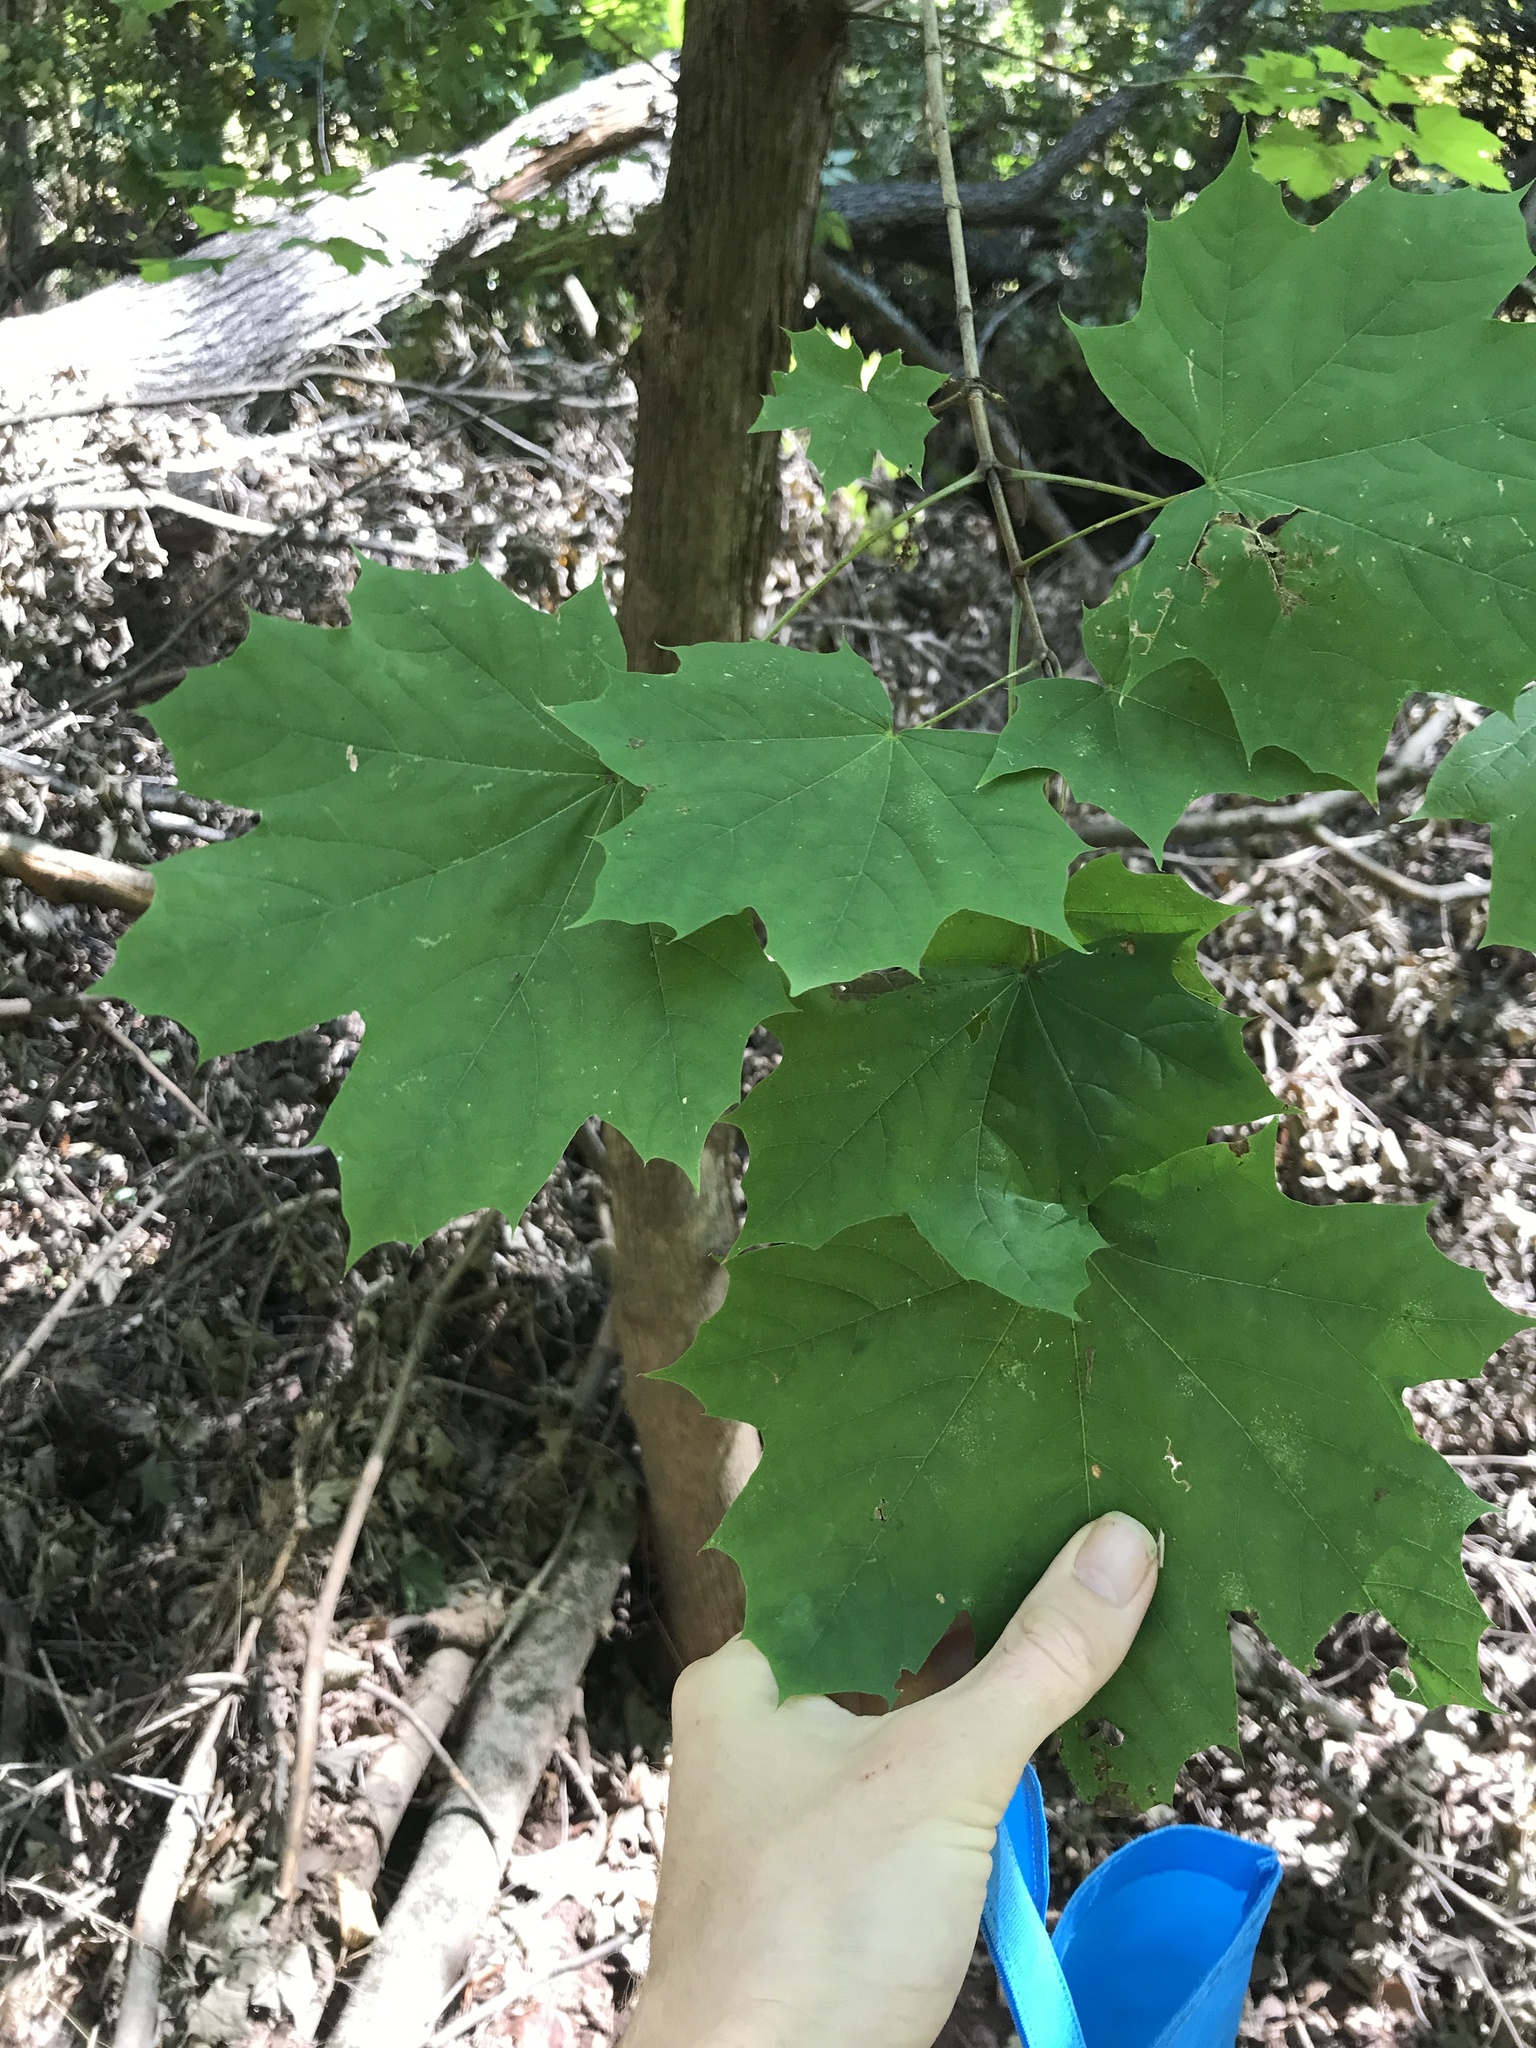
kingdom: Plantae
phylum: Tracheophyta
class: Magnoliopsida
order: Sapindales
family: Sapindaceae
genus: Acer
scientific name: Acer platanoides
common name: Norway maple
